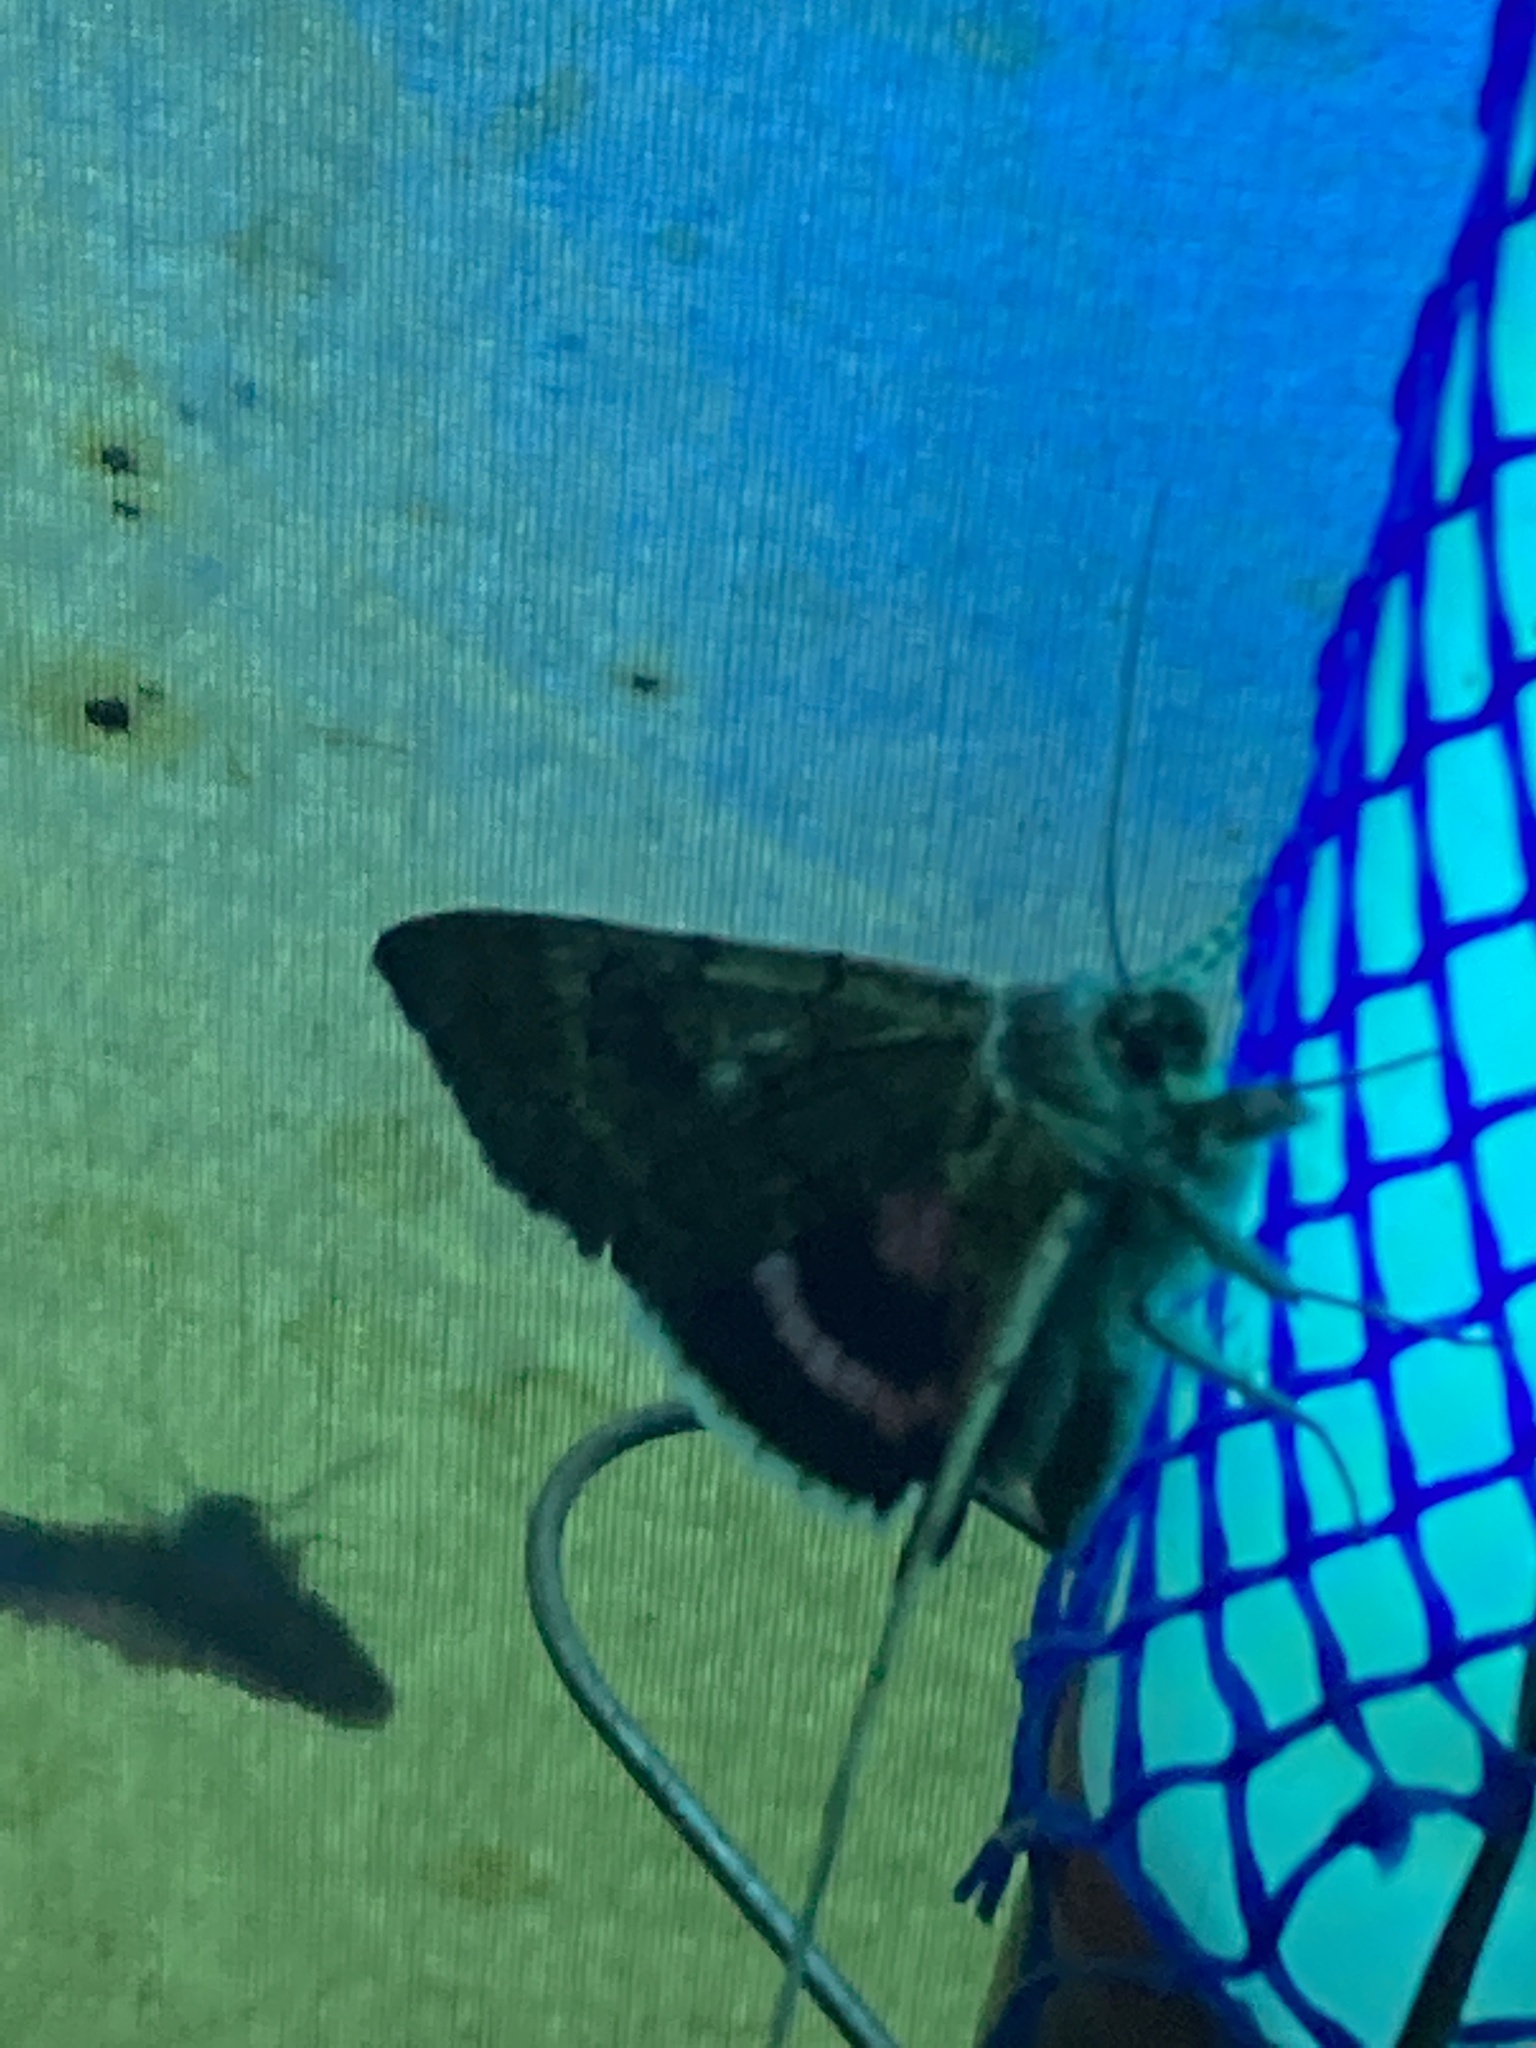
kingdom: Animalia
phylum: Arthropoda
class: Insecta
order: Lepidoptera
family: Erebidae
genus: Catocala
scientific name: Catocala concumbens
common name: Pink underwing
